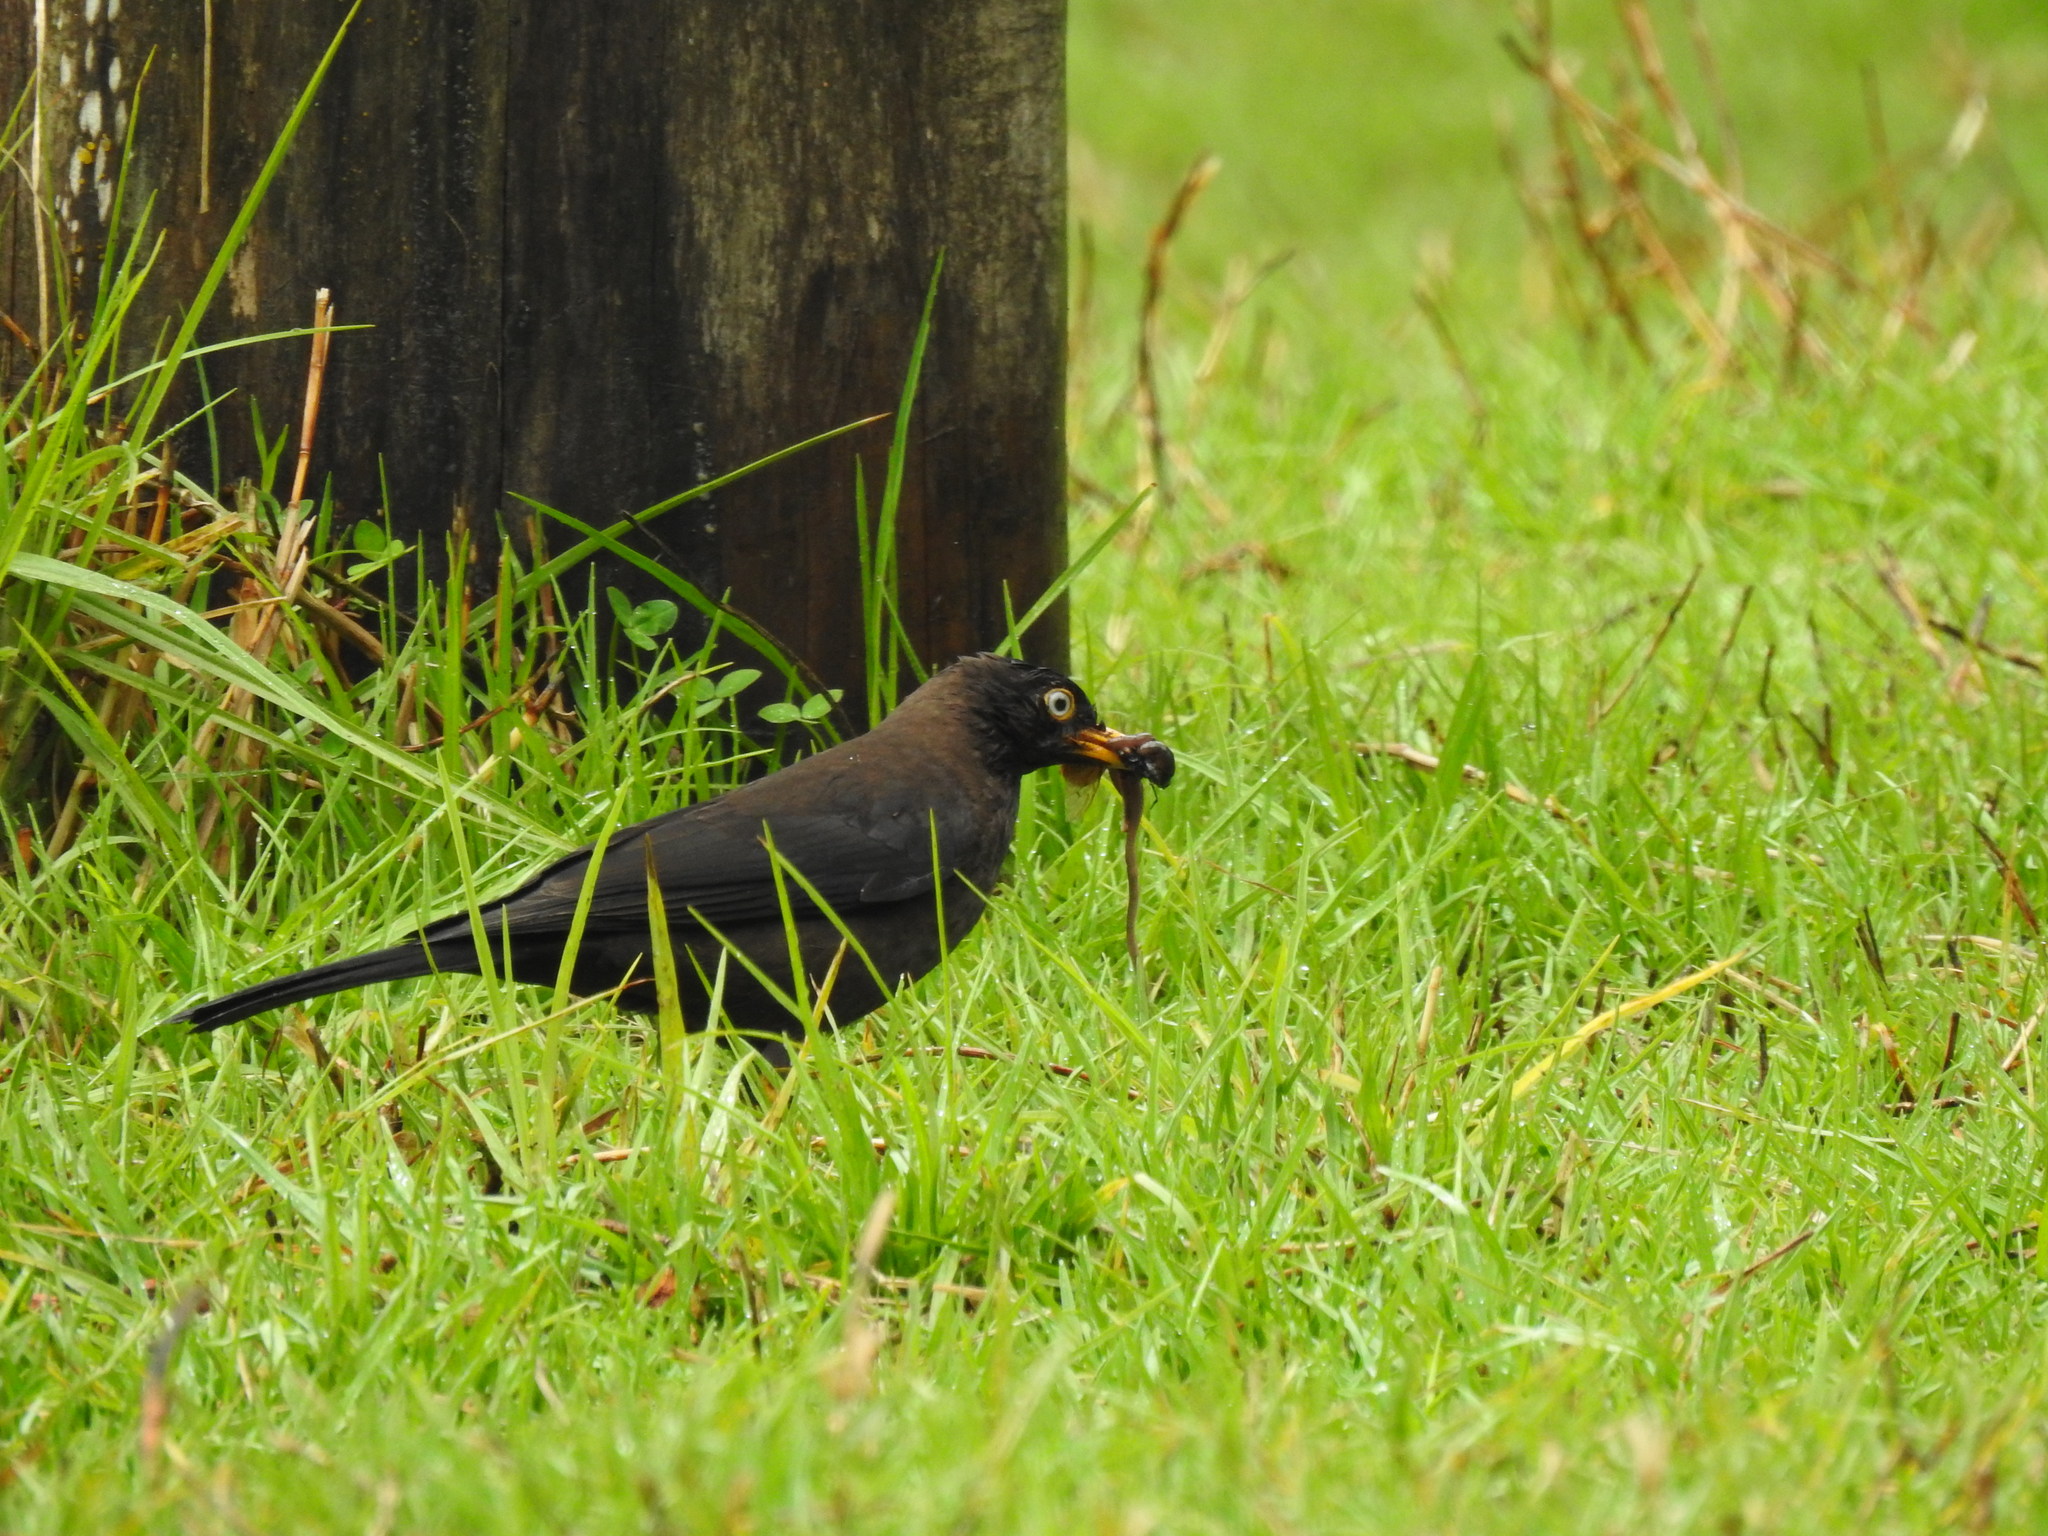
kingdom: Animalia
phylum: Chordata
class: Aves
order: Passeriformes
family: Turdidae
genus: Turdus
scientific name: Turdus nigrescens
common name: Sooty thrush
